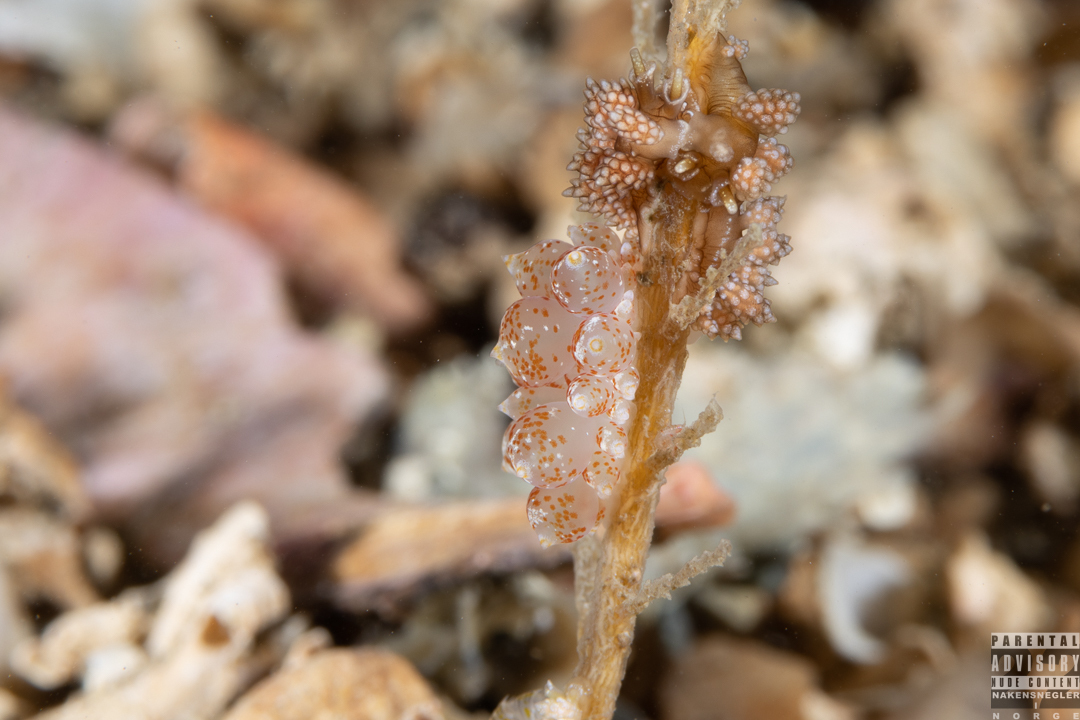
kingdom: Animalia
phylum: Mollusca
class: Gastropoda
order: Nudibranchia
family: Eubranchidae
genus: Amphorina
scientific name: Amphorina pallida
